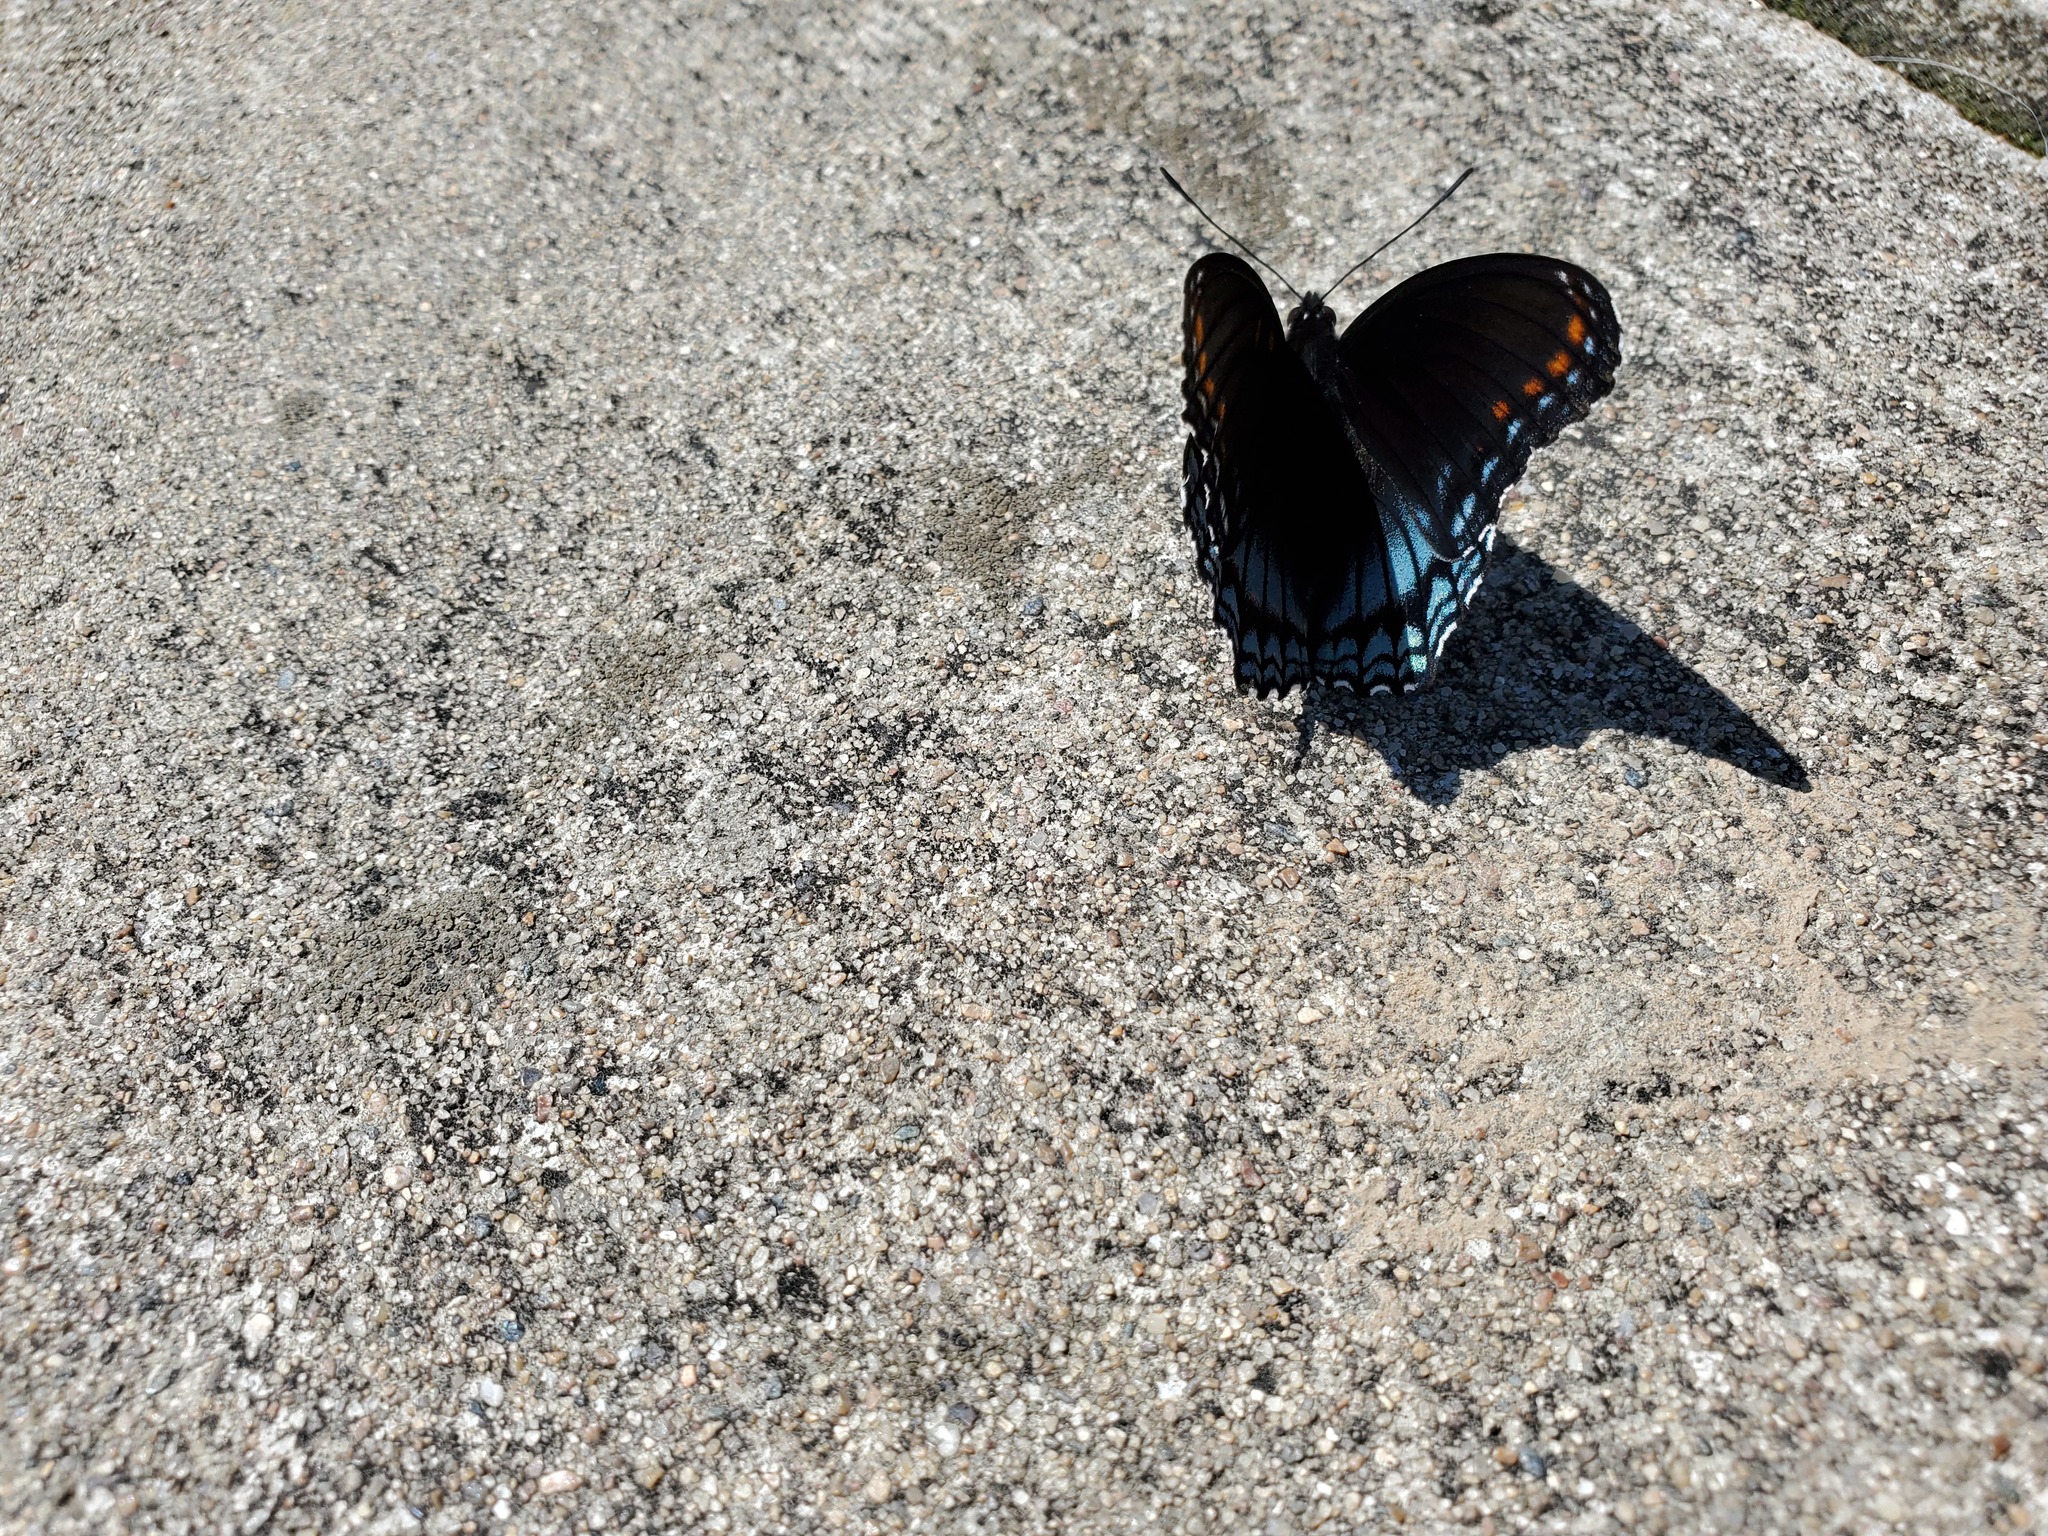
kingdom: Animalia
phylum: Arthropoda
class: Insecta
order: Lepidoptera
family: Nymphalidae
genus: Limenitis
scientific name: Limenitis astyanax
